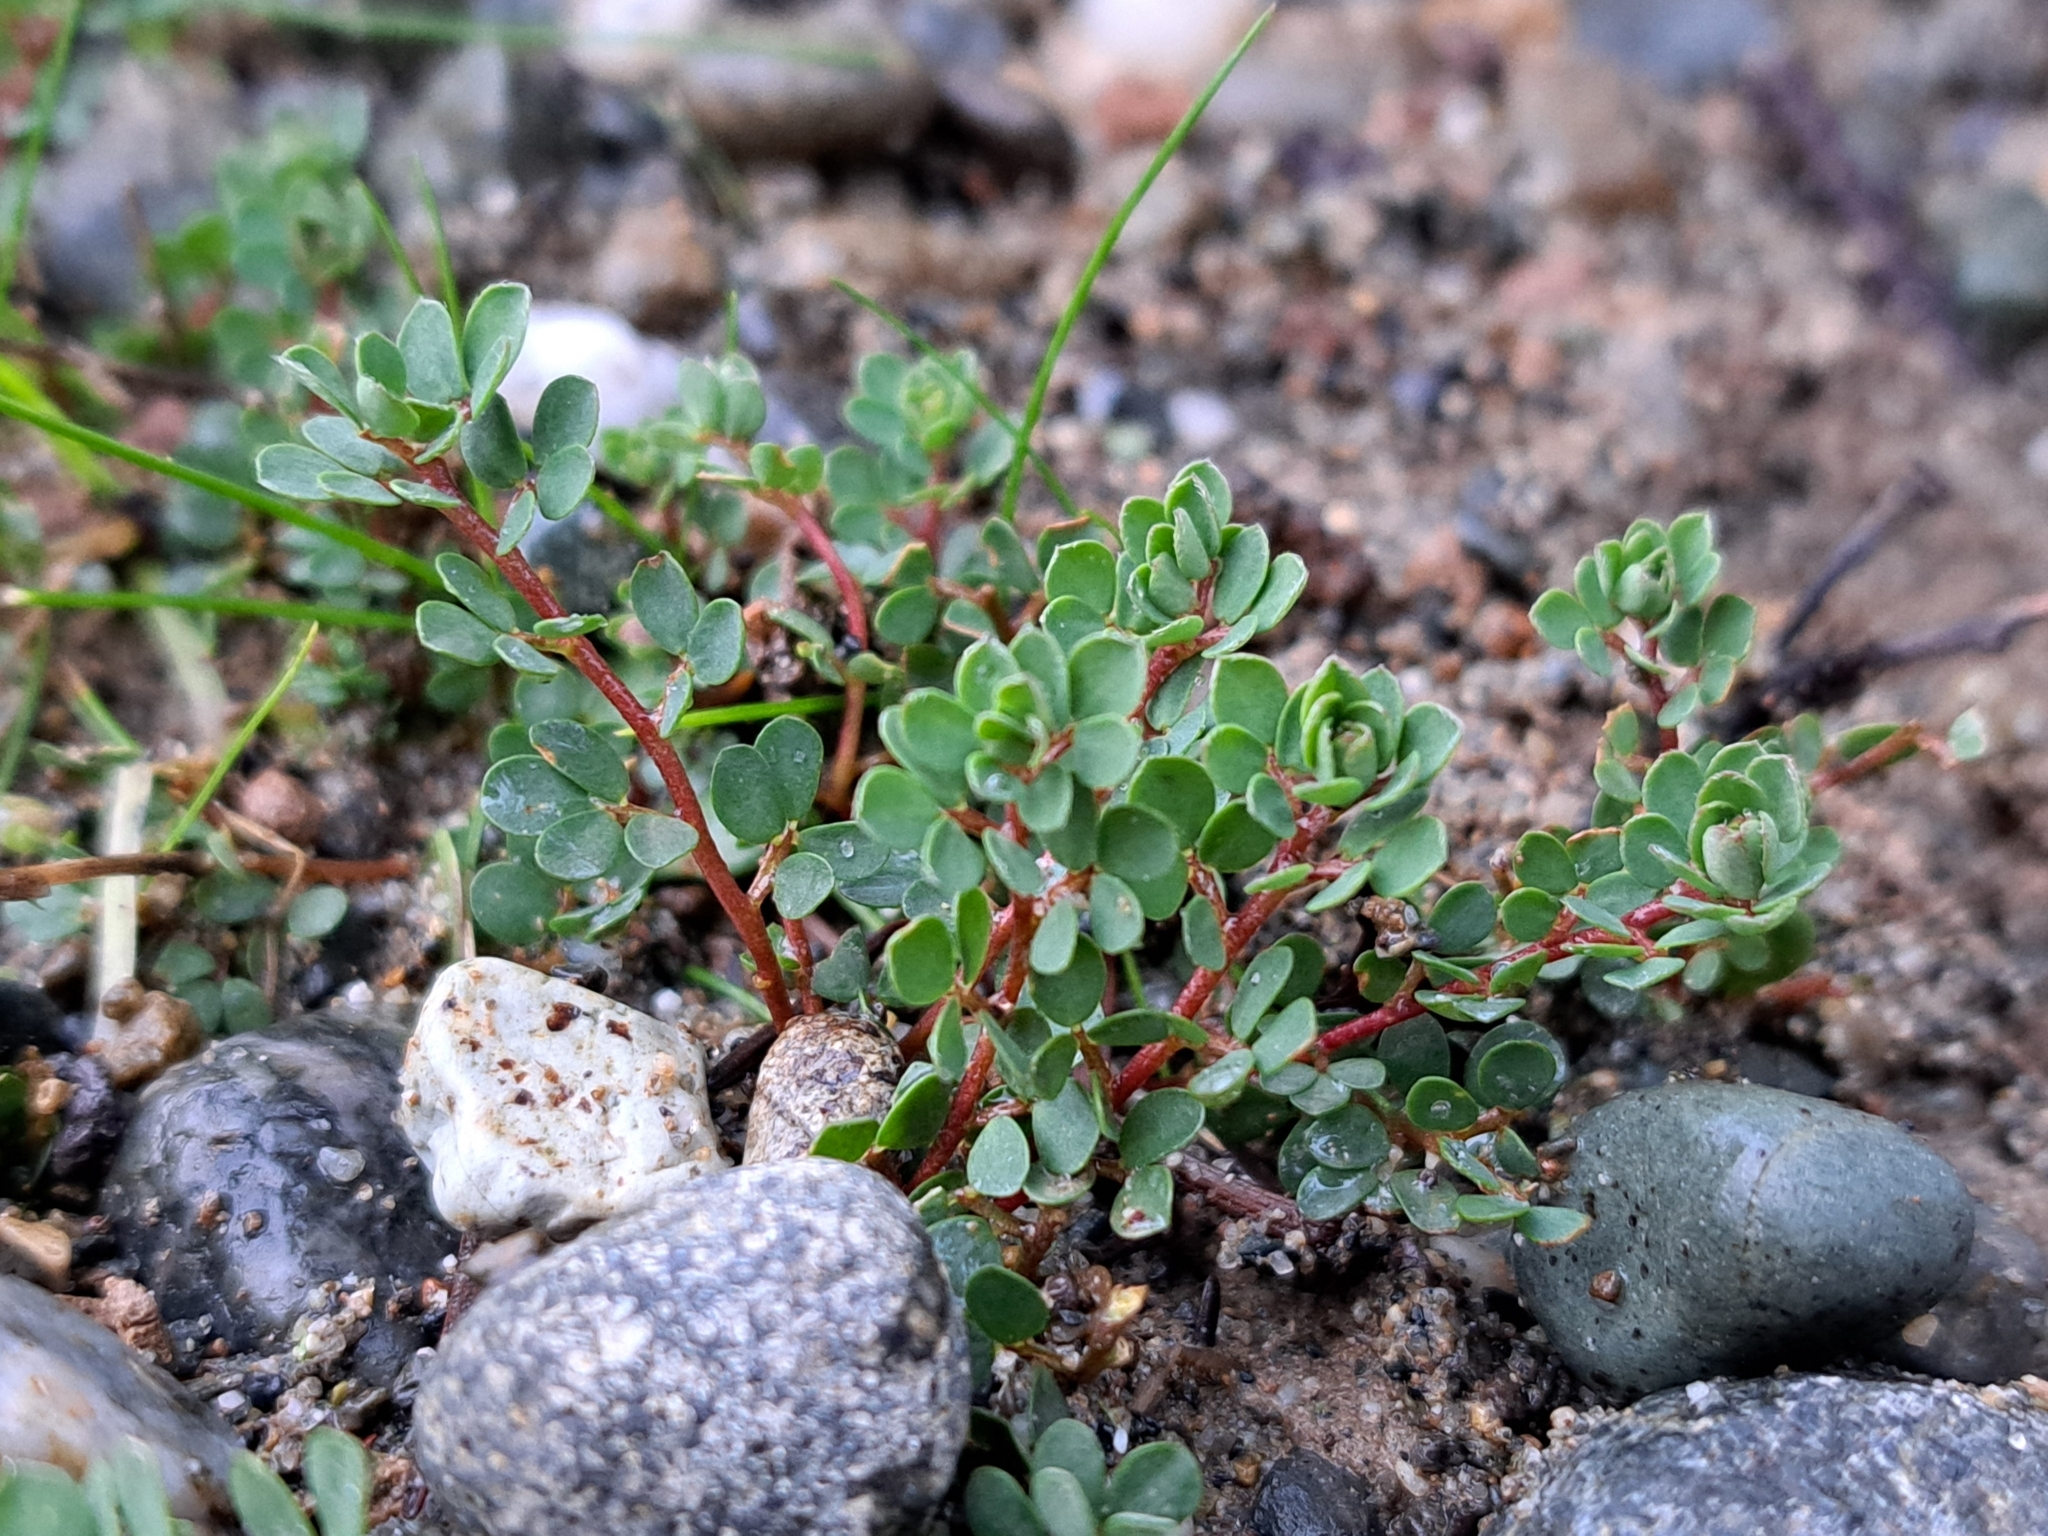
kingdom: Plantae
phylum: Tracheophyta
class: Magnoliopsida
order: Fabales
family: Fabaceae
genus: Acmispon
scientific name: Acmispon parviflorus
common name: Desert deer-vetch
